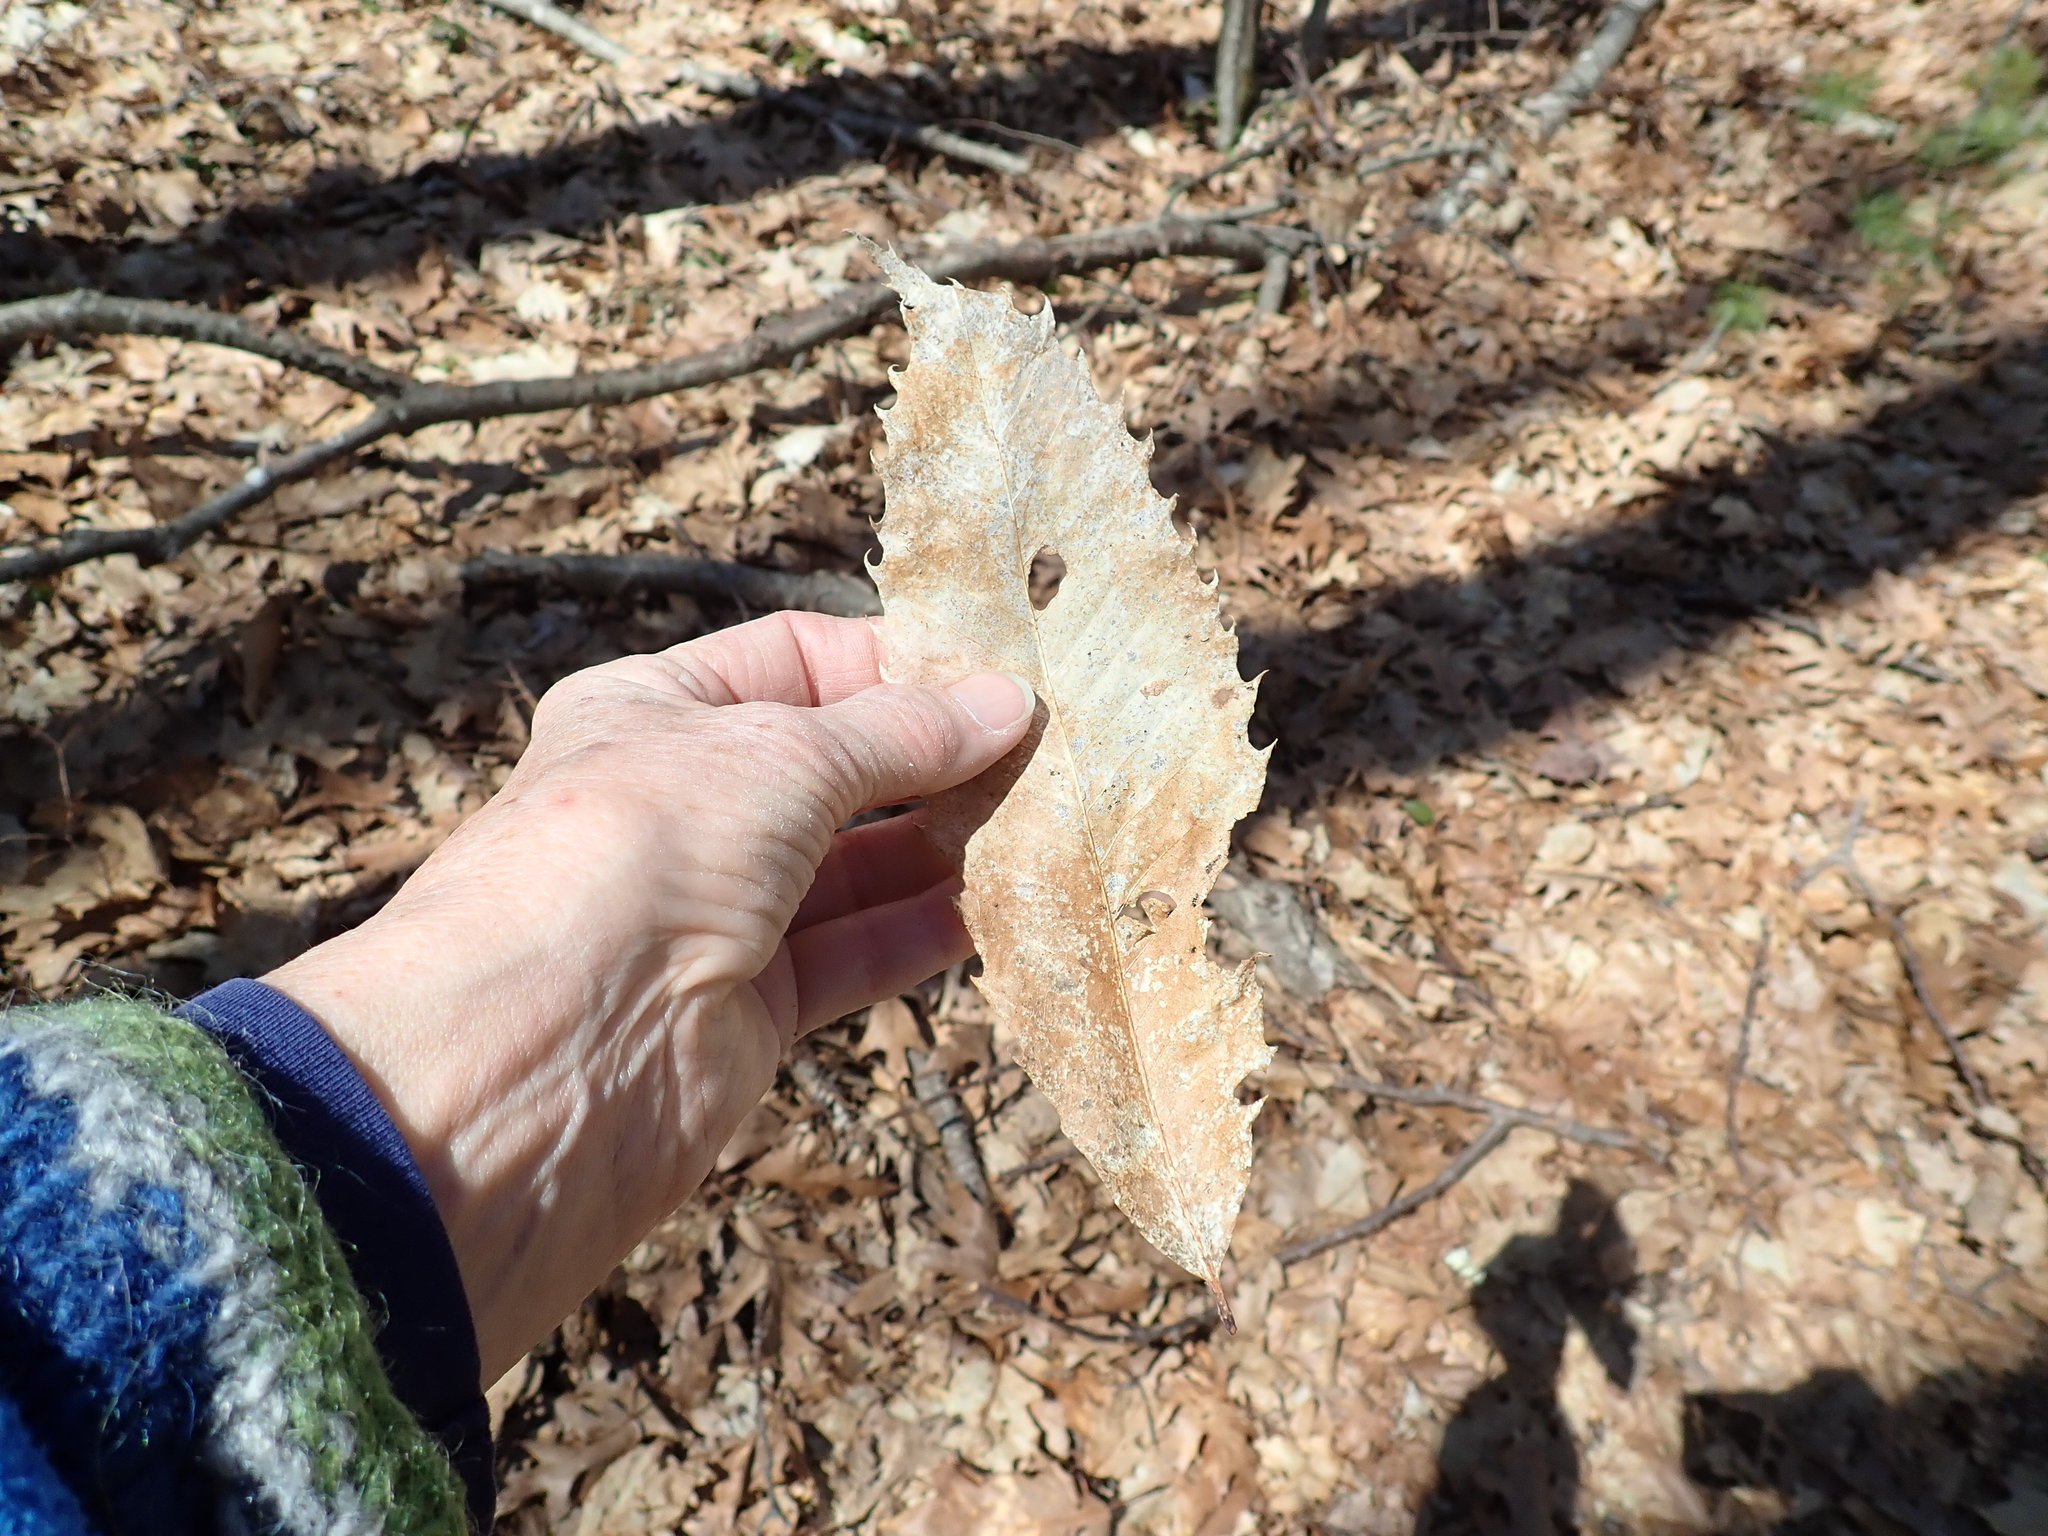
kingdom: Plantae
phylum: Tracheophyta
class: Magnoliopsida
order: Fagales
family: Fagaceae
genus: Castanea
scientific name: Castanea dentata
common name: American chestnut
